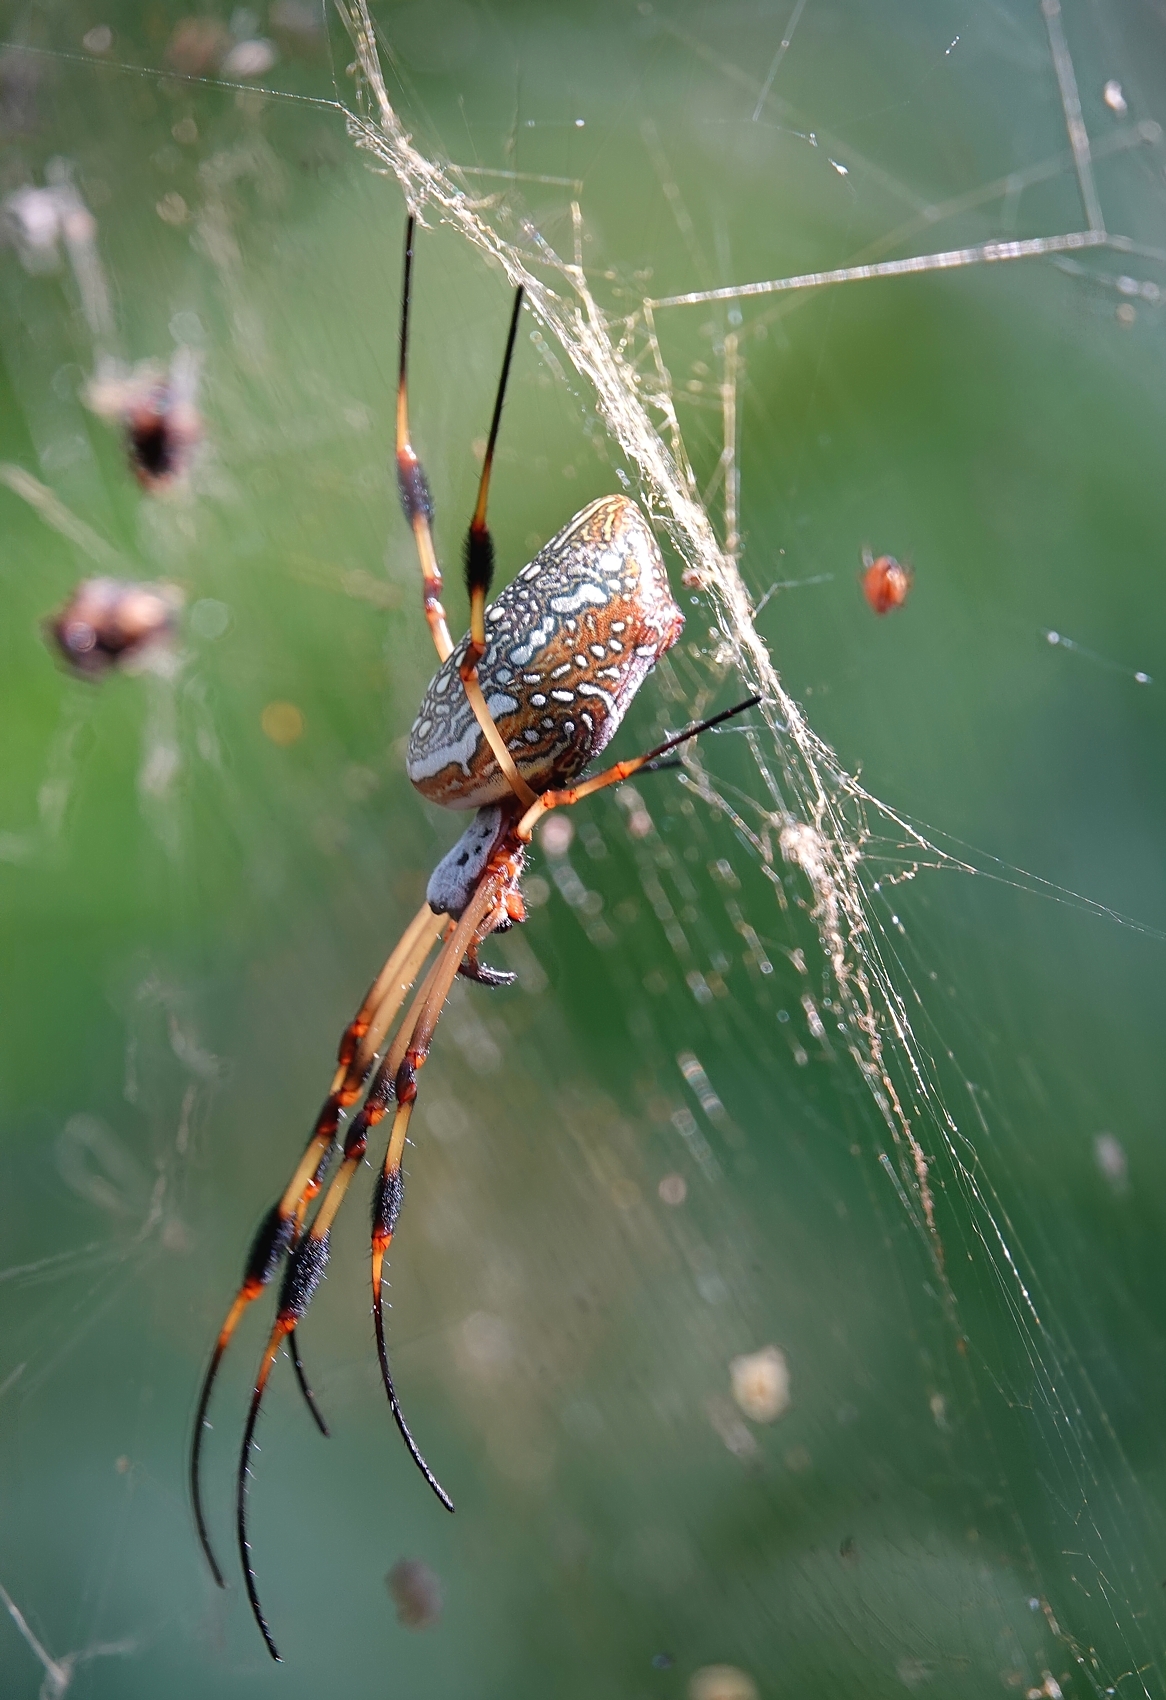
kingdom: Animalia
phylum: Arthropoda
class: Arachnida
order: Araneae
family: Araneidae
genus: Trichonephila
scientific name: Trichonephila clavipes
